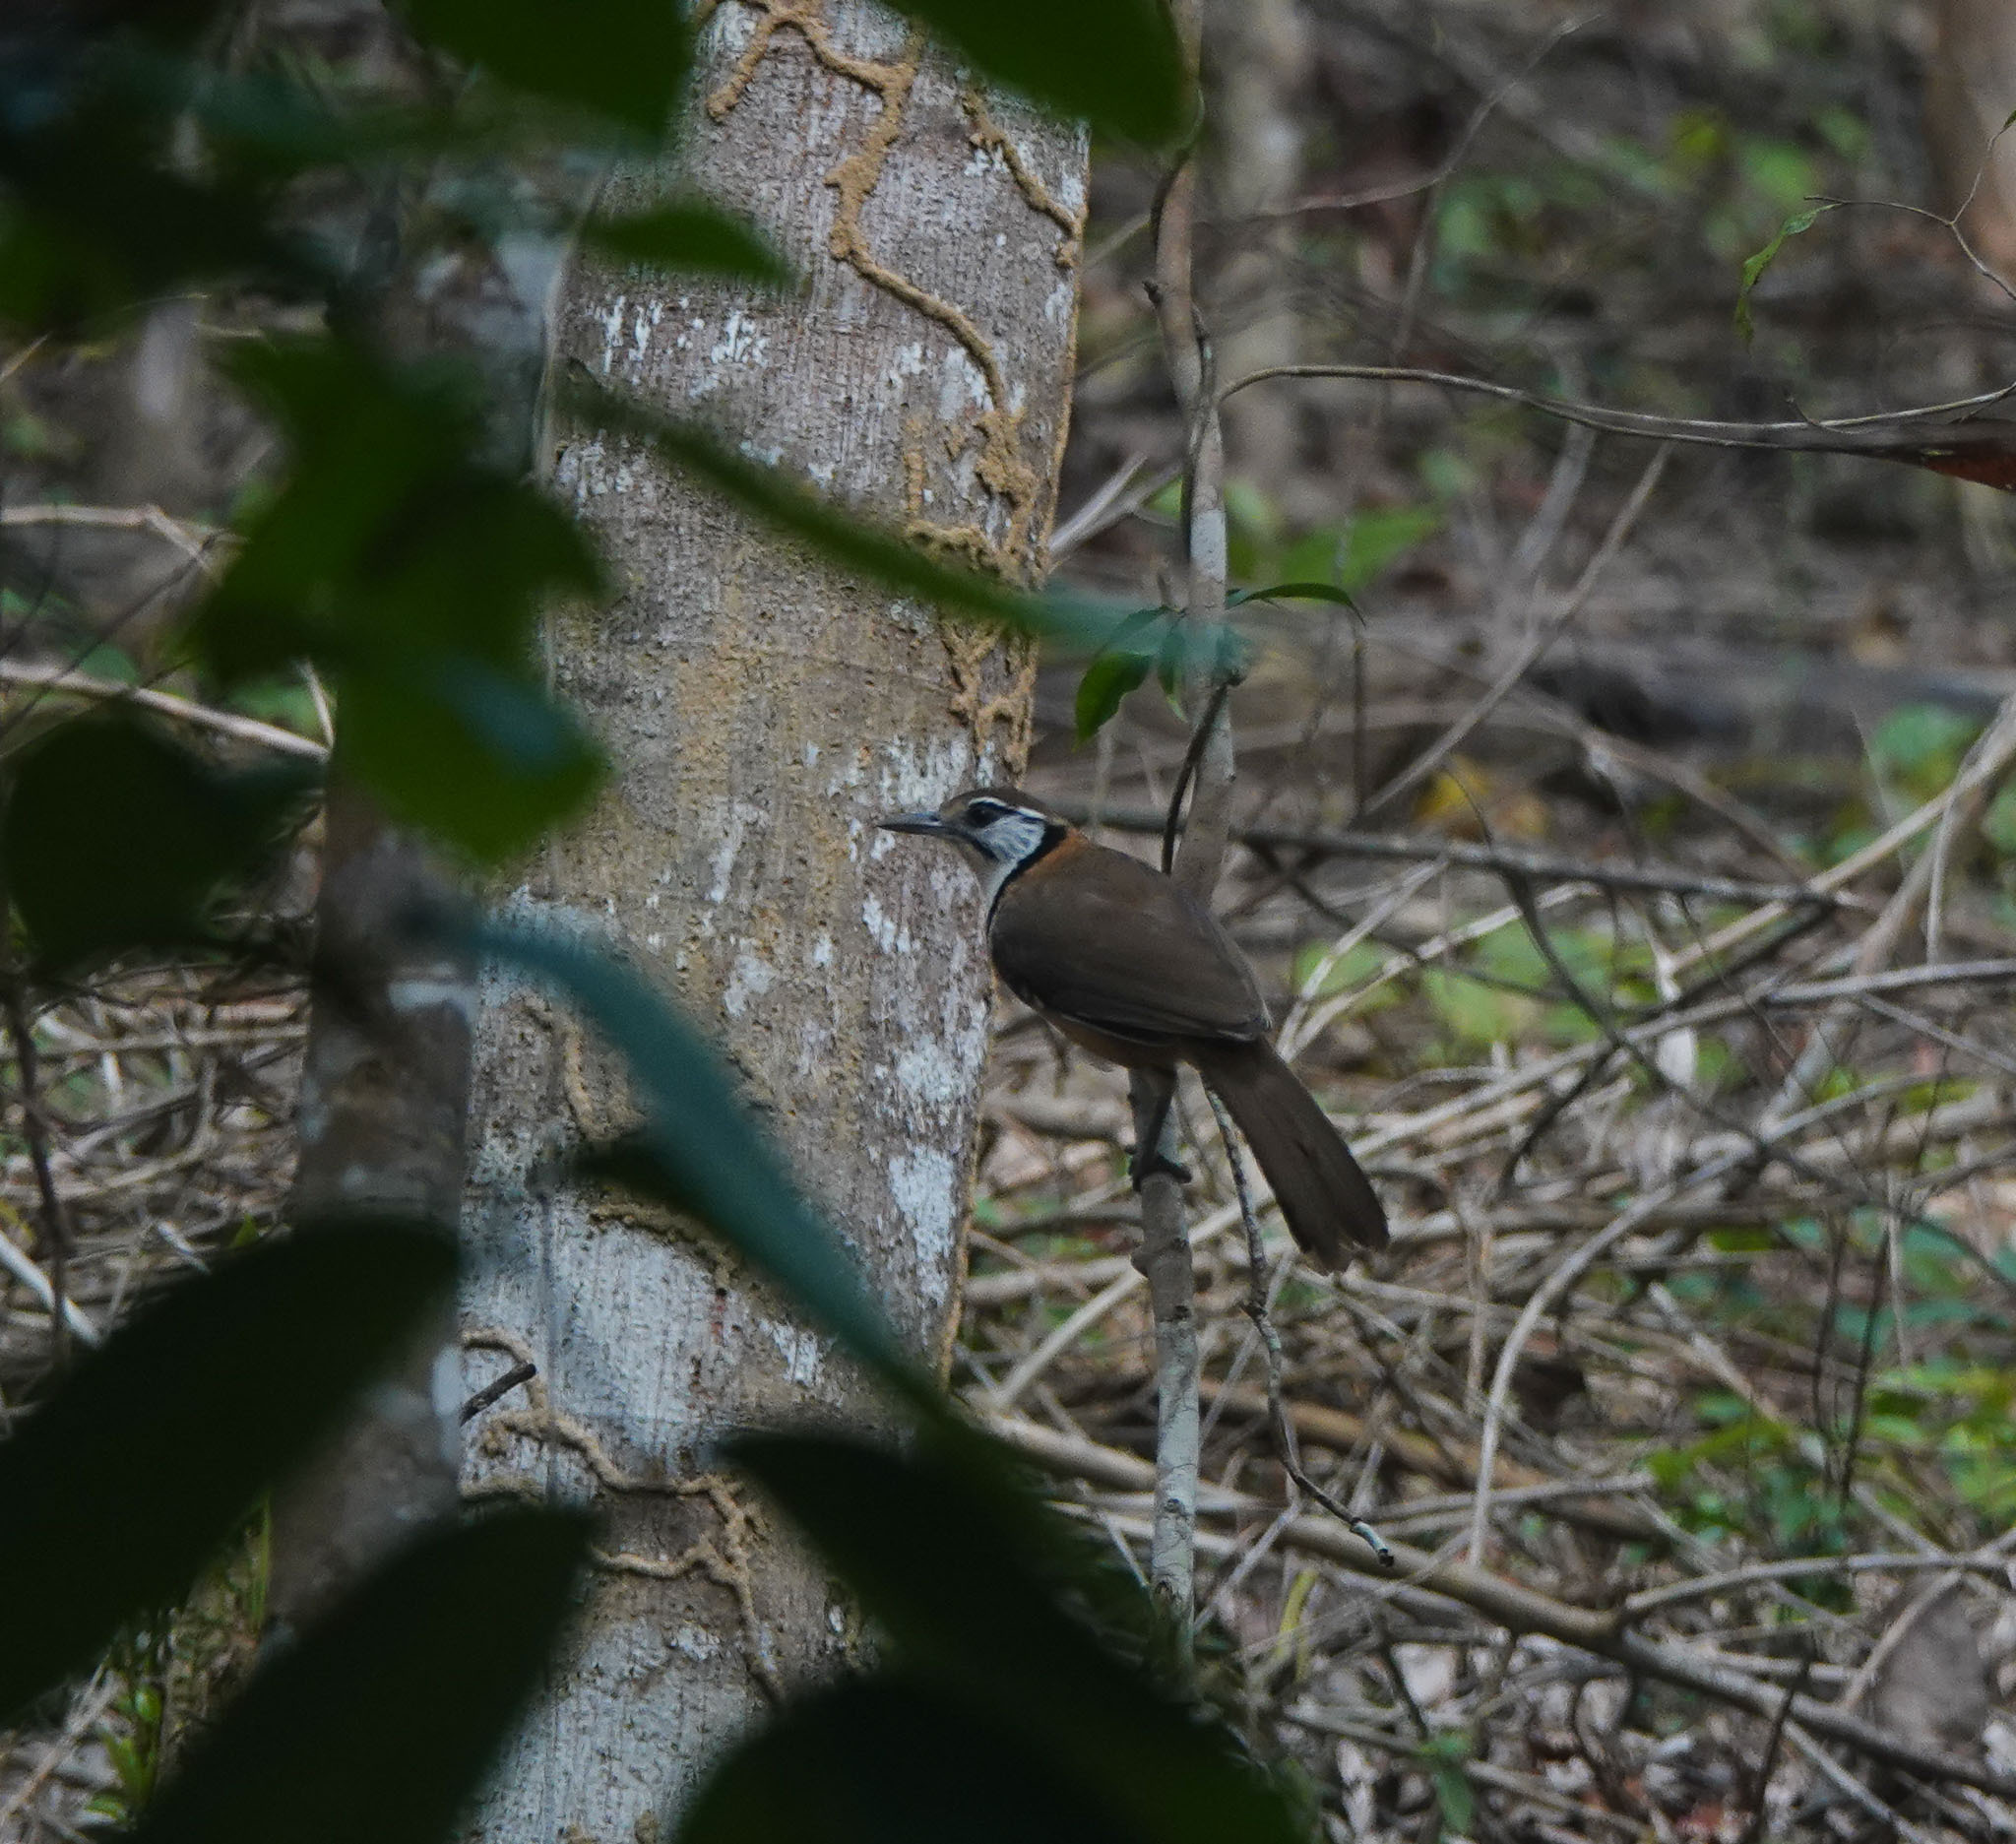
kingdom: Animalia
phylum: Chordata
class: Aves
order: Passeriformes
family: Leiothrichidae
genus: Garrulax
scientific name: Garrulax pectoralis
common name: Greater necklaced laughingthrush
